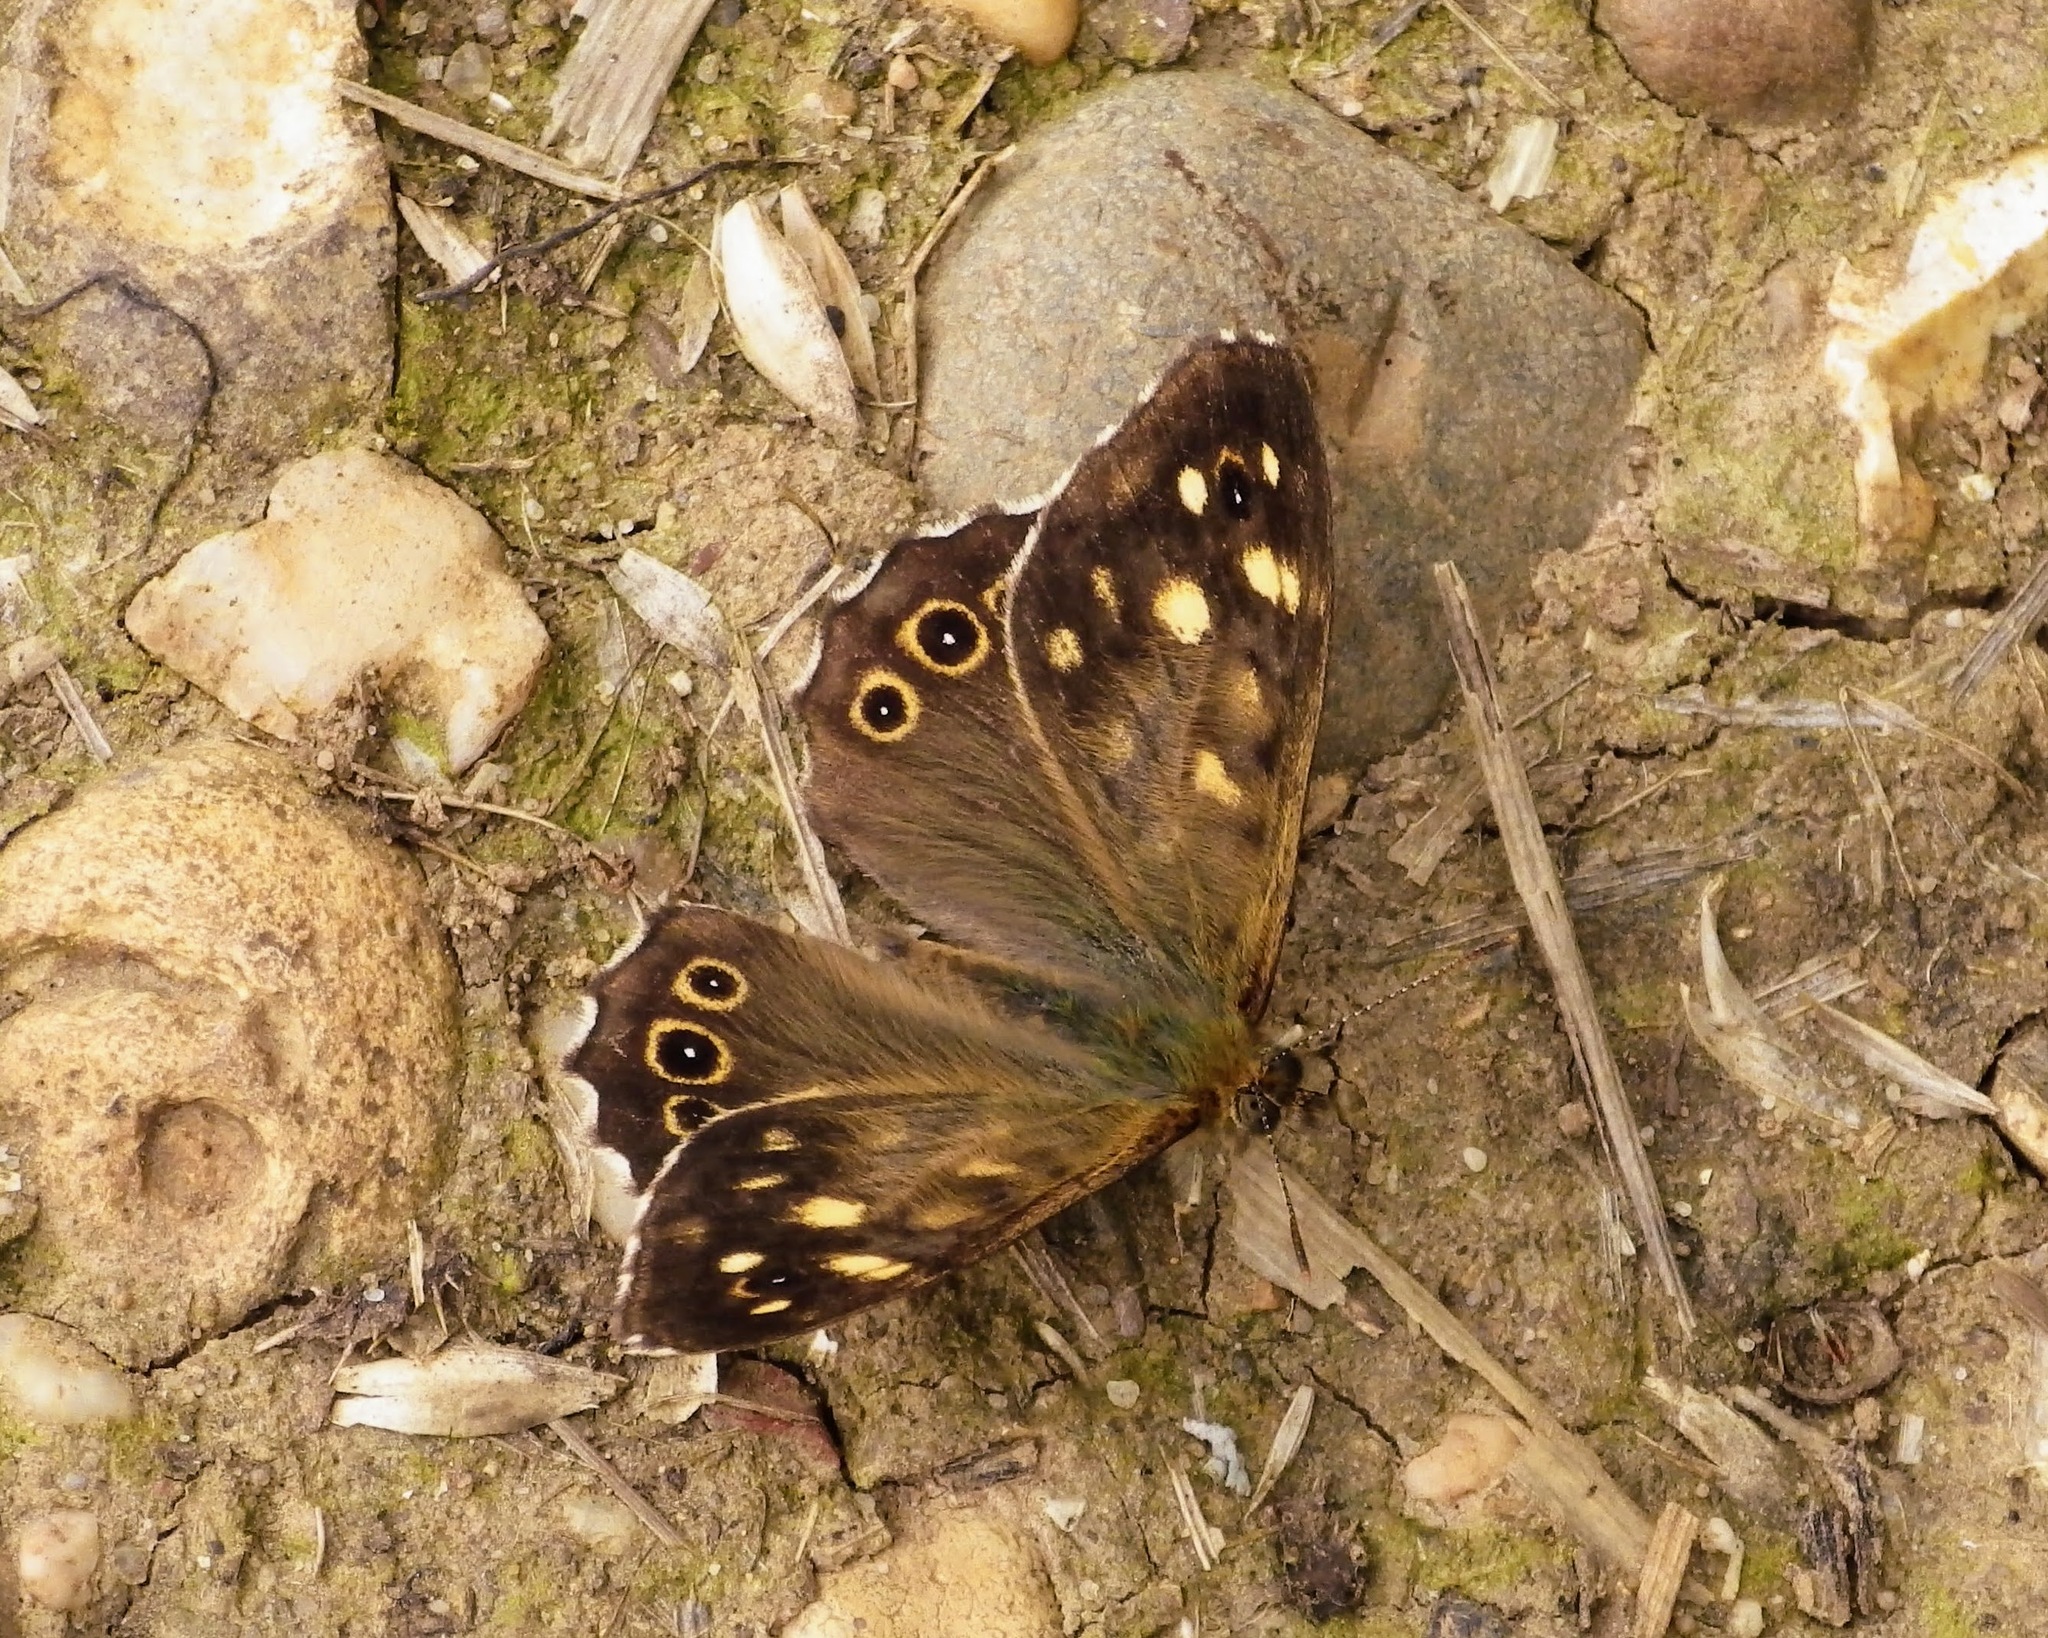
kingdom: Animalia
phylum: Arthropoda
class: Insecta
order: Lepidoptera
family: Nymphalidae
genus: Pararge
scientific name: Pararge aegeria
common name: Speckled wood
